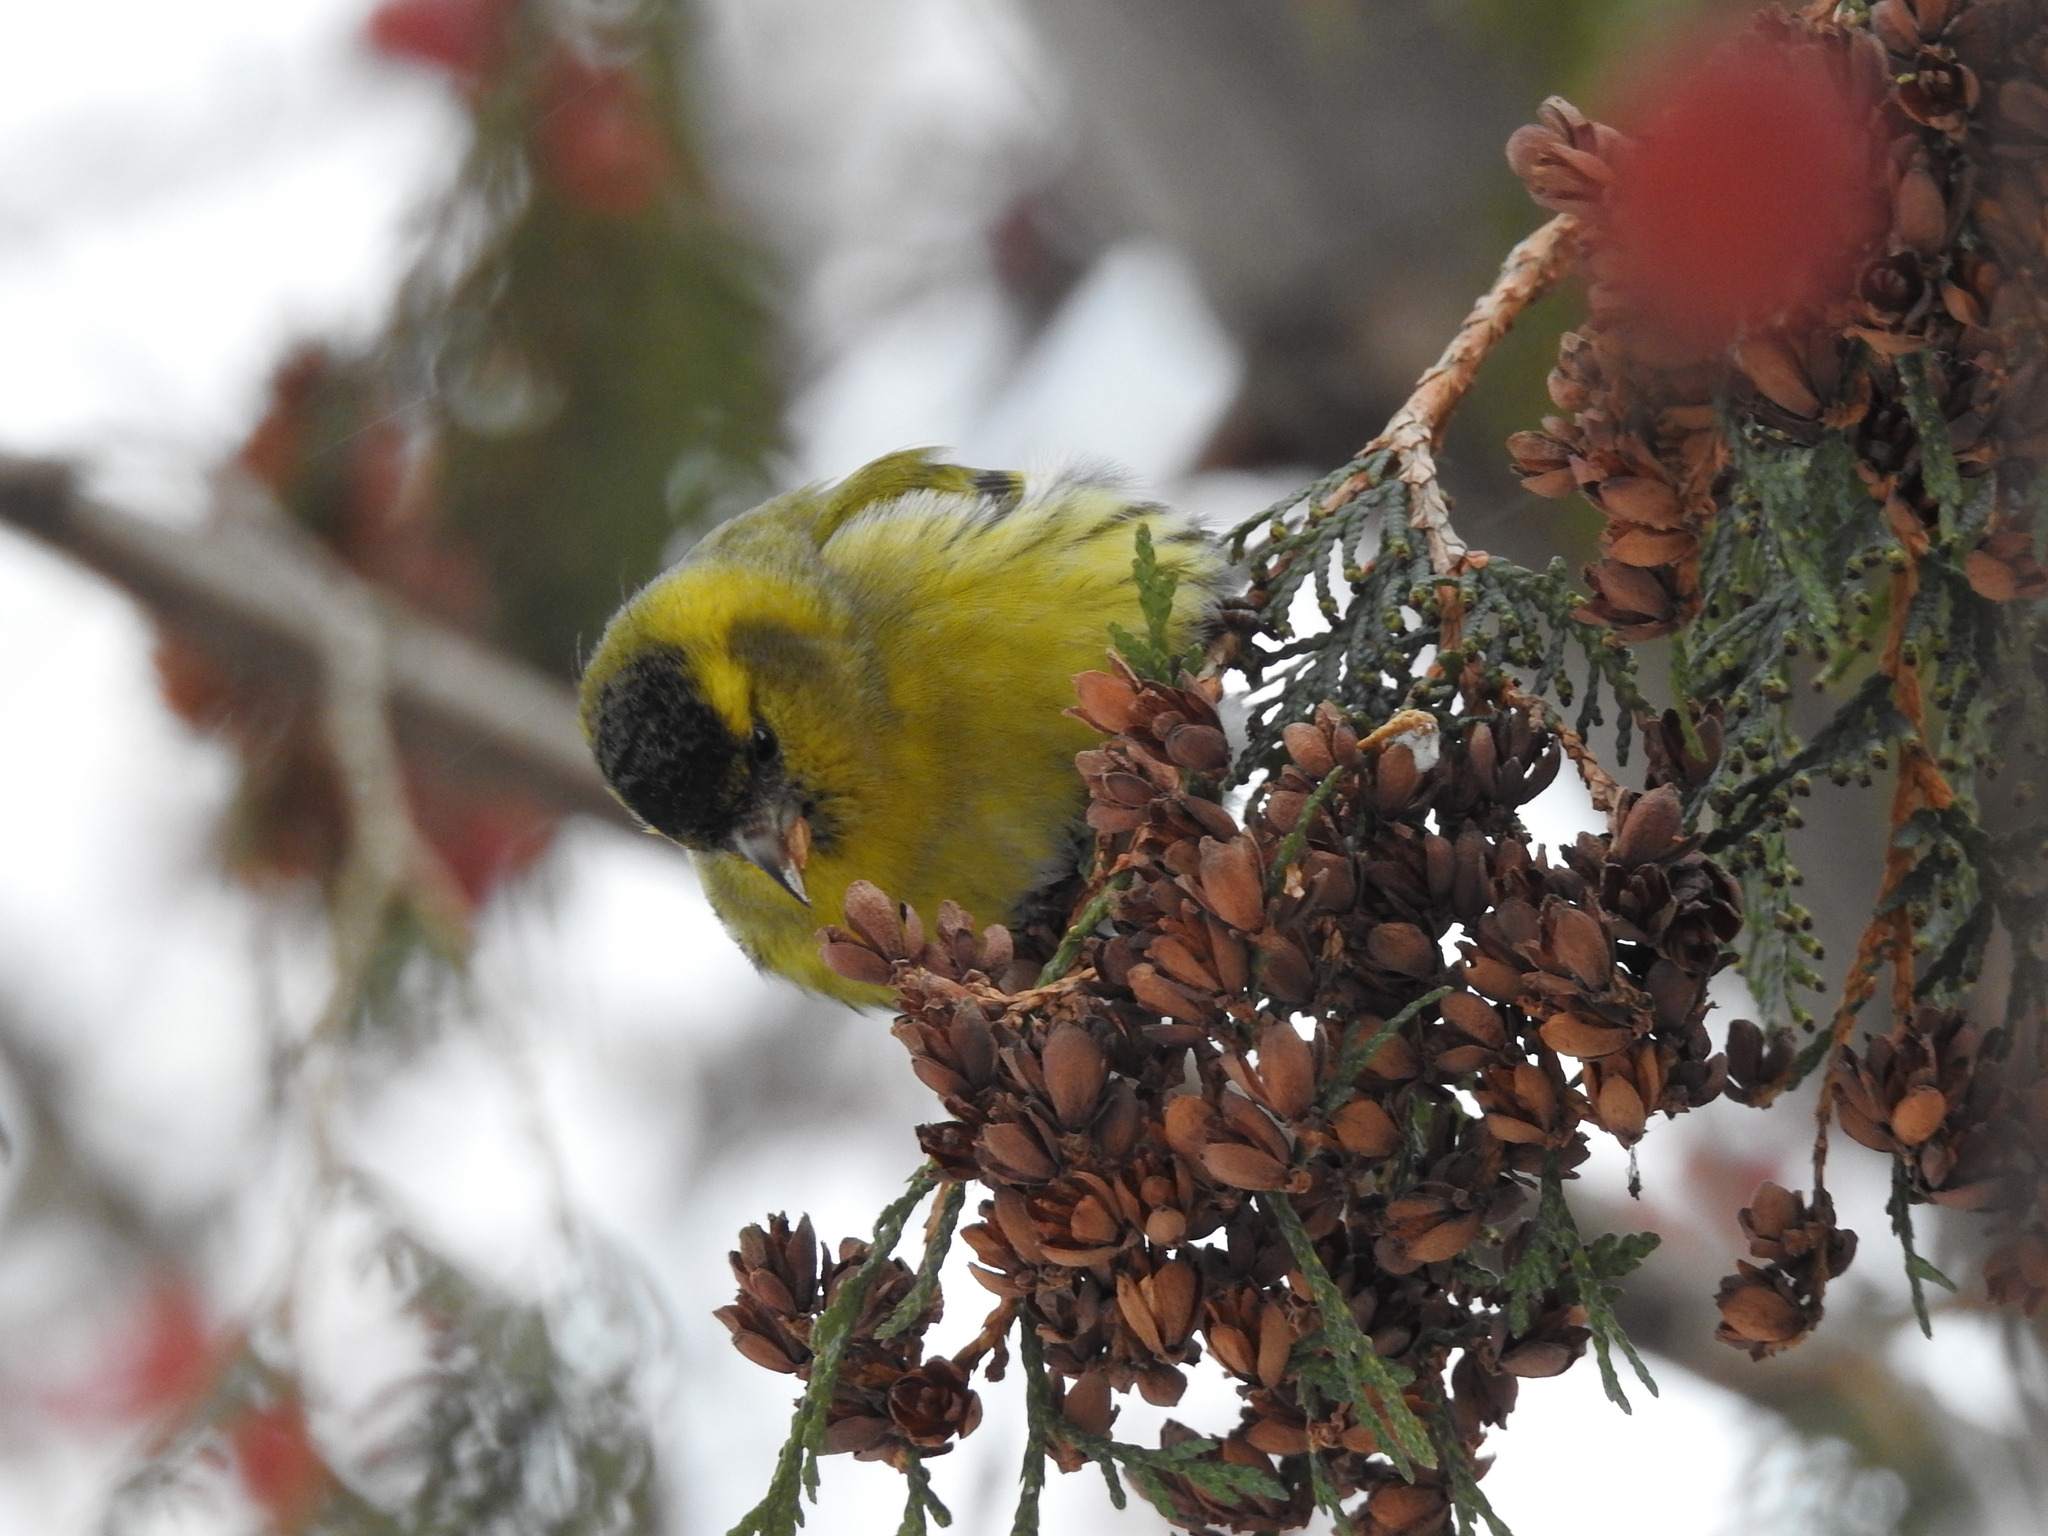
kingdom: Animalia
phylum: Chordata
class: Aves
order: Passeriformes
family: Fringillidae
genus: Spinus
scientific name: Spinus spinus
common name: Eurasian siskin
